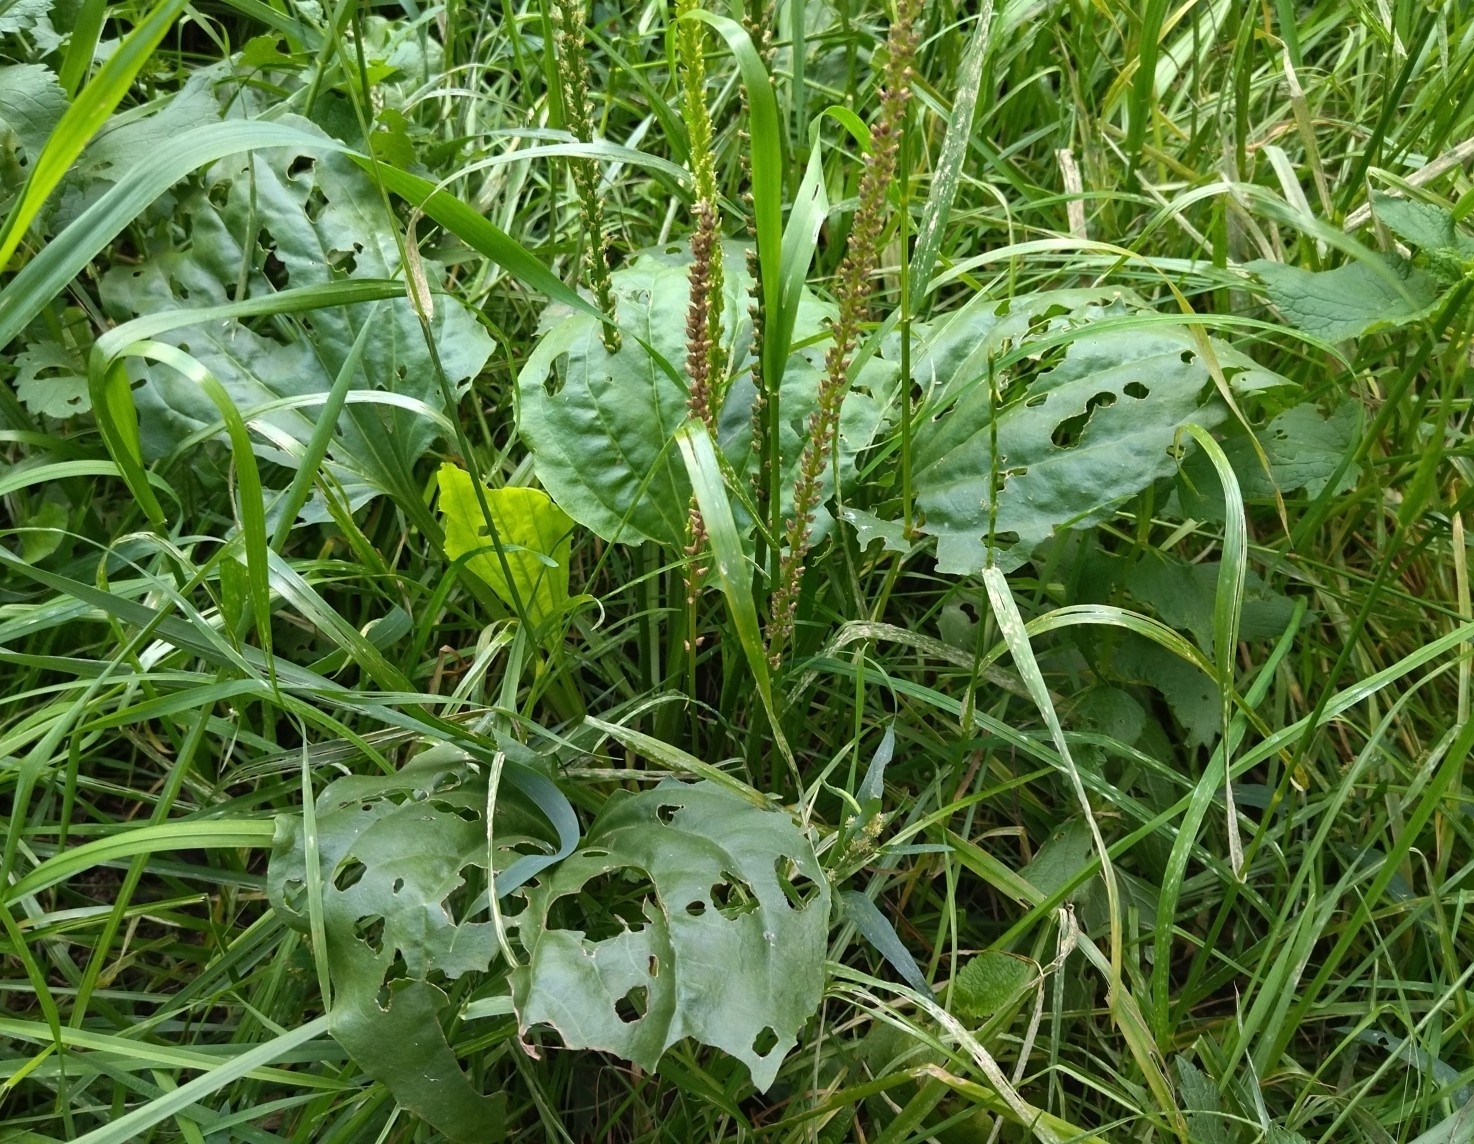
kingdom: Plantae
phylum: Tracheophyta
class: Magnoliopsida
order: Lamiales
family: Plantaginaceae
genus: Plantago
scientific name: Plantago major
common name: Common plantain
